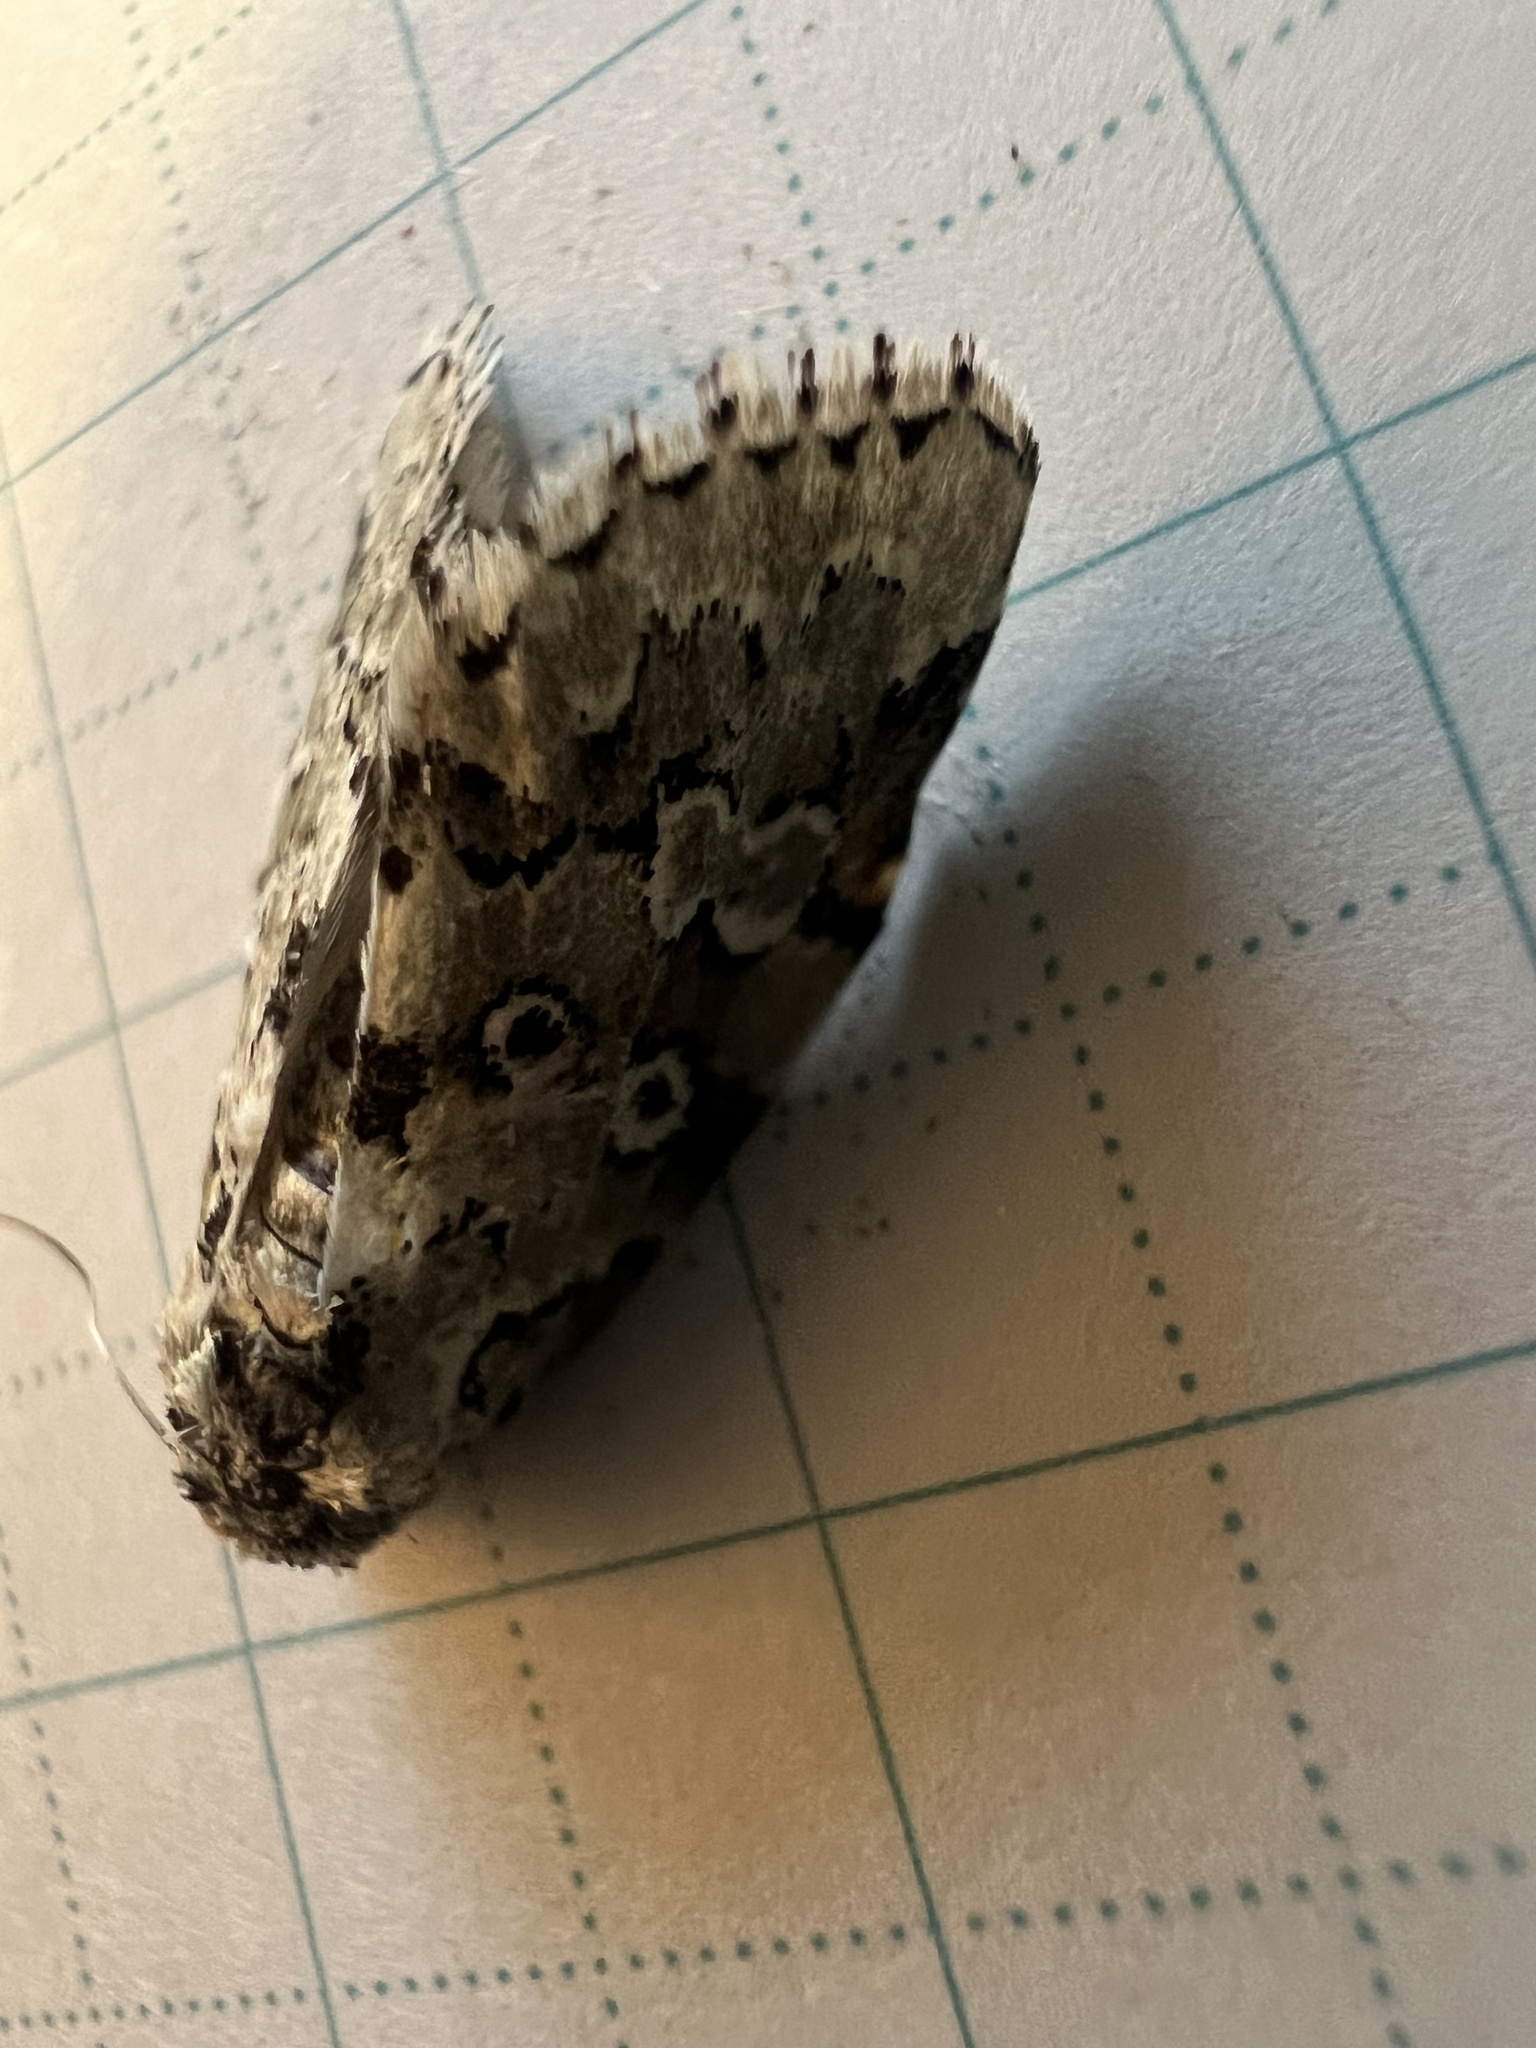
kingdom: Animalia
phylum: Arthropoda
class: Insecta
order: Lepidoptera
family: Noctuidae
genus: Bryolymnia
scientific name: Bryolymnia viridata
